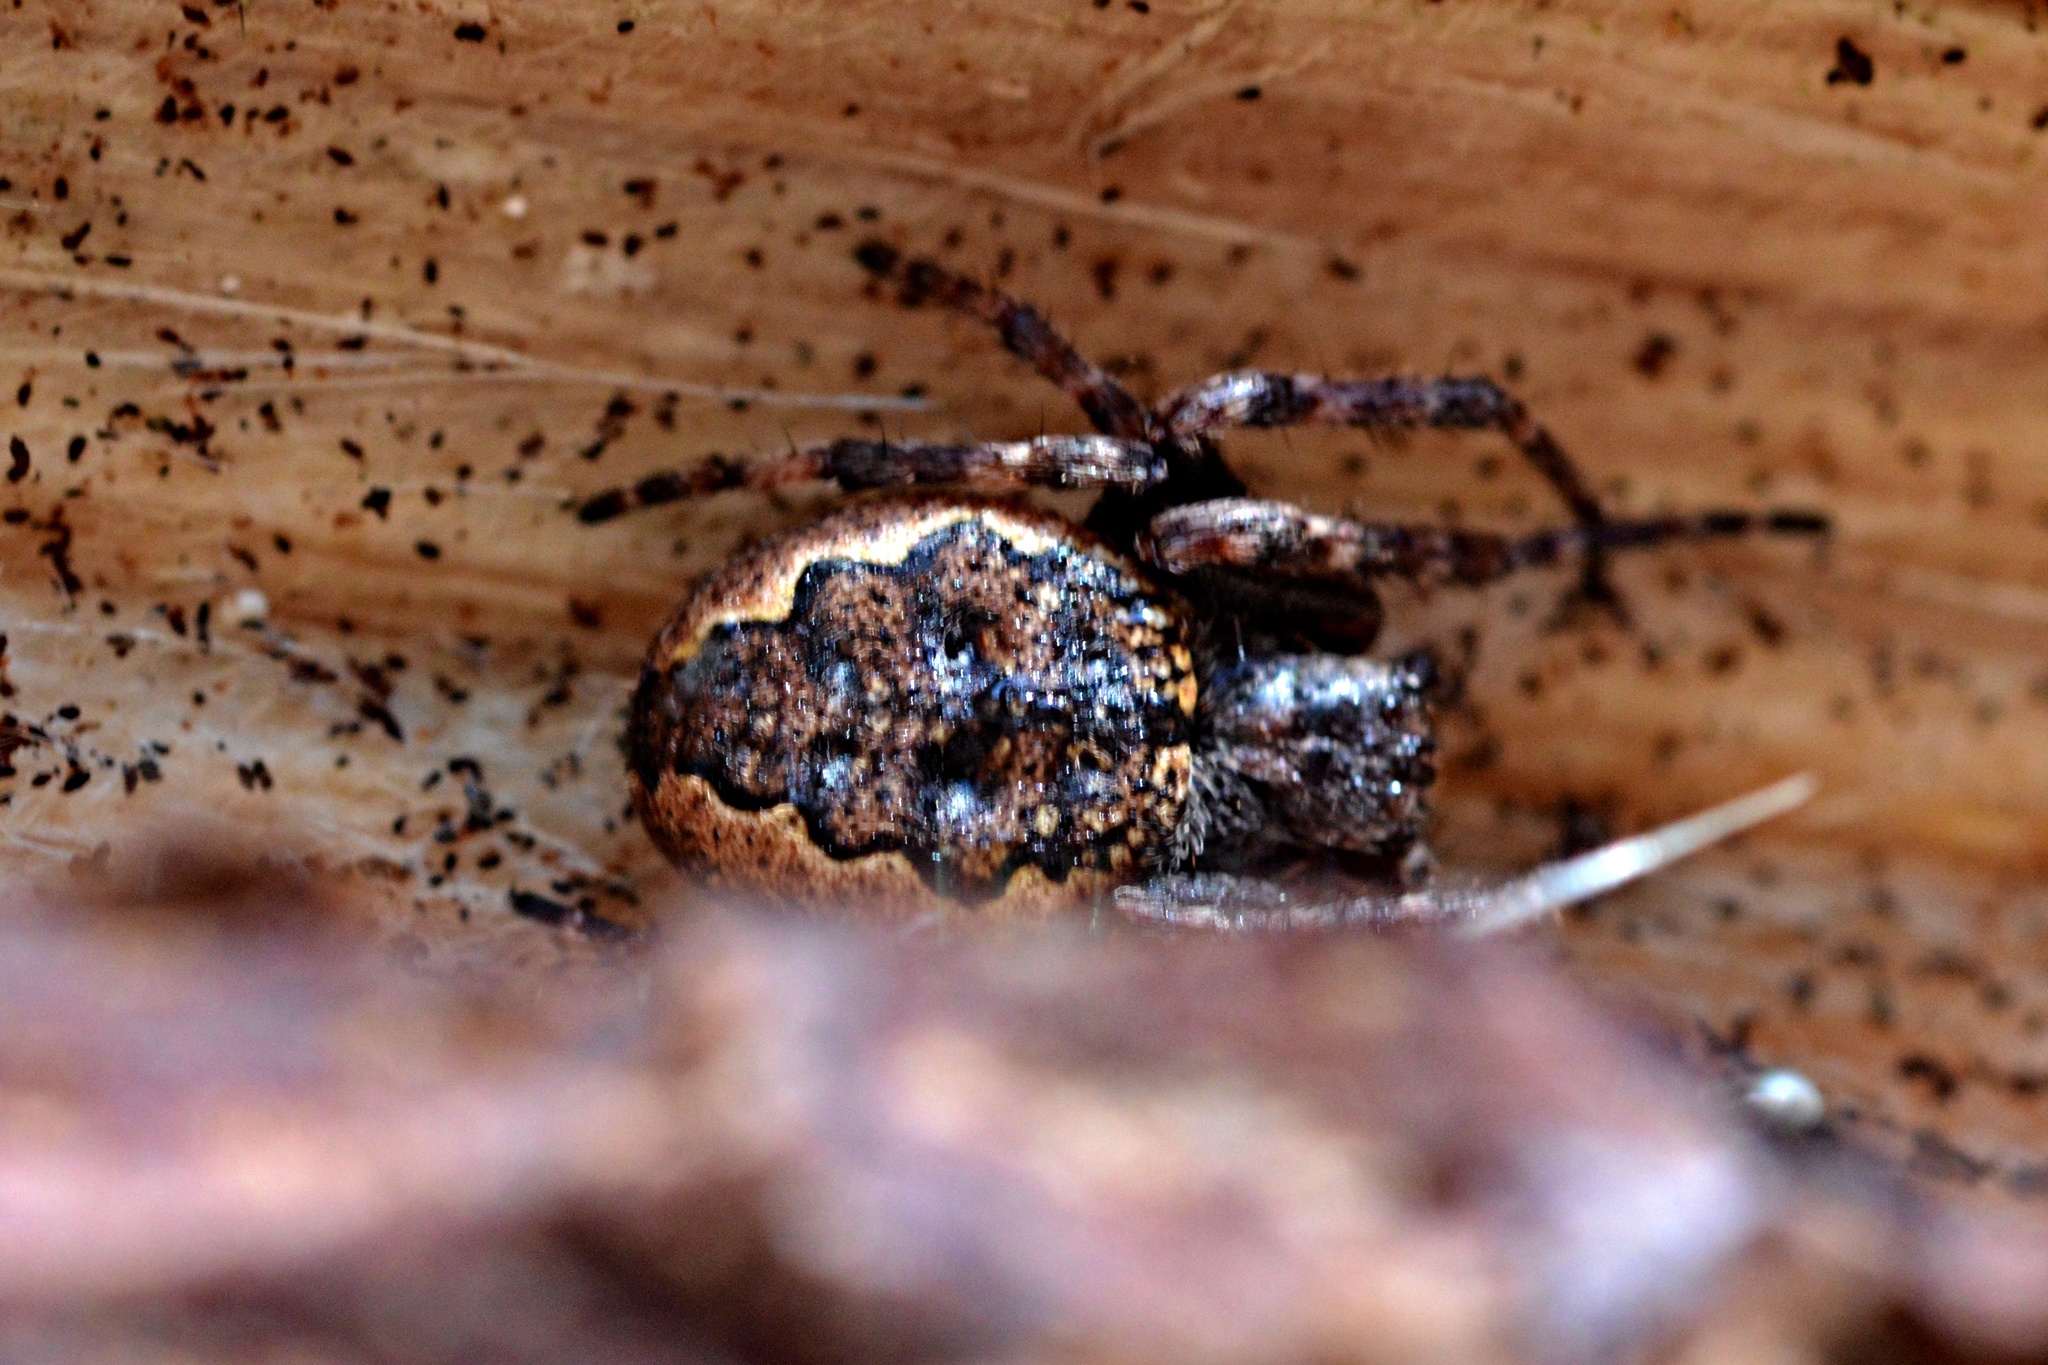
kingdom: Animalia
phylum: Arthropoda
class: Arachnida
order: Araneae
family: Araneidae
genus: Nuctenea
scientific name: Nuctenea umbratica
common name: Toad spider
